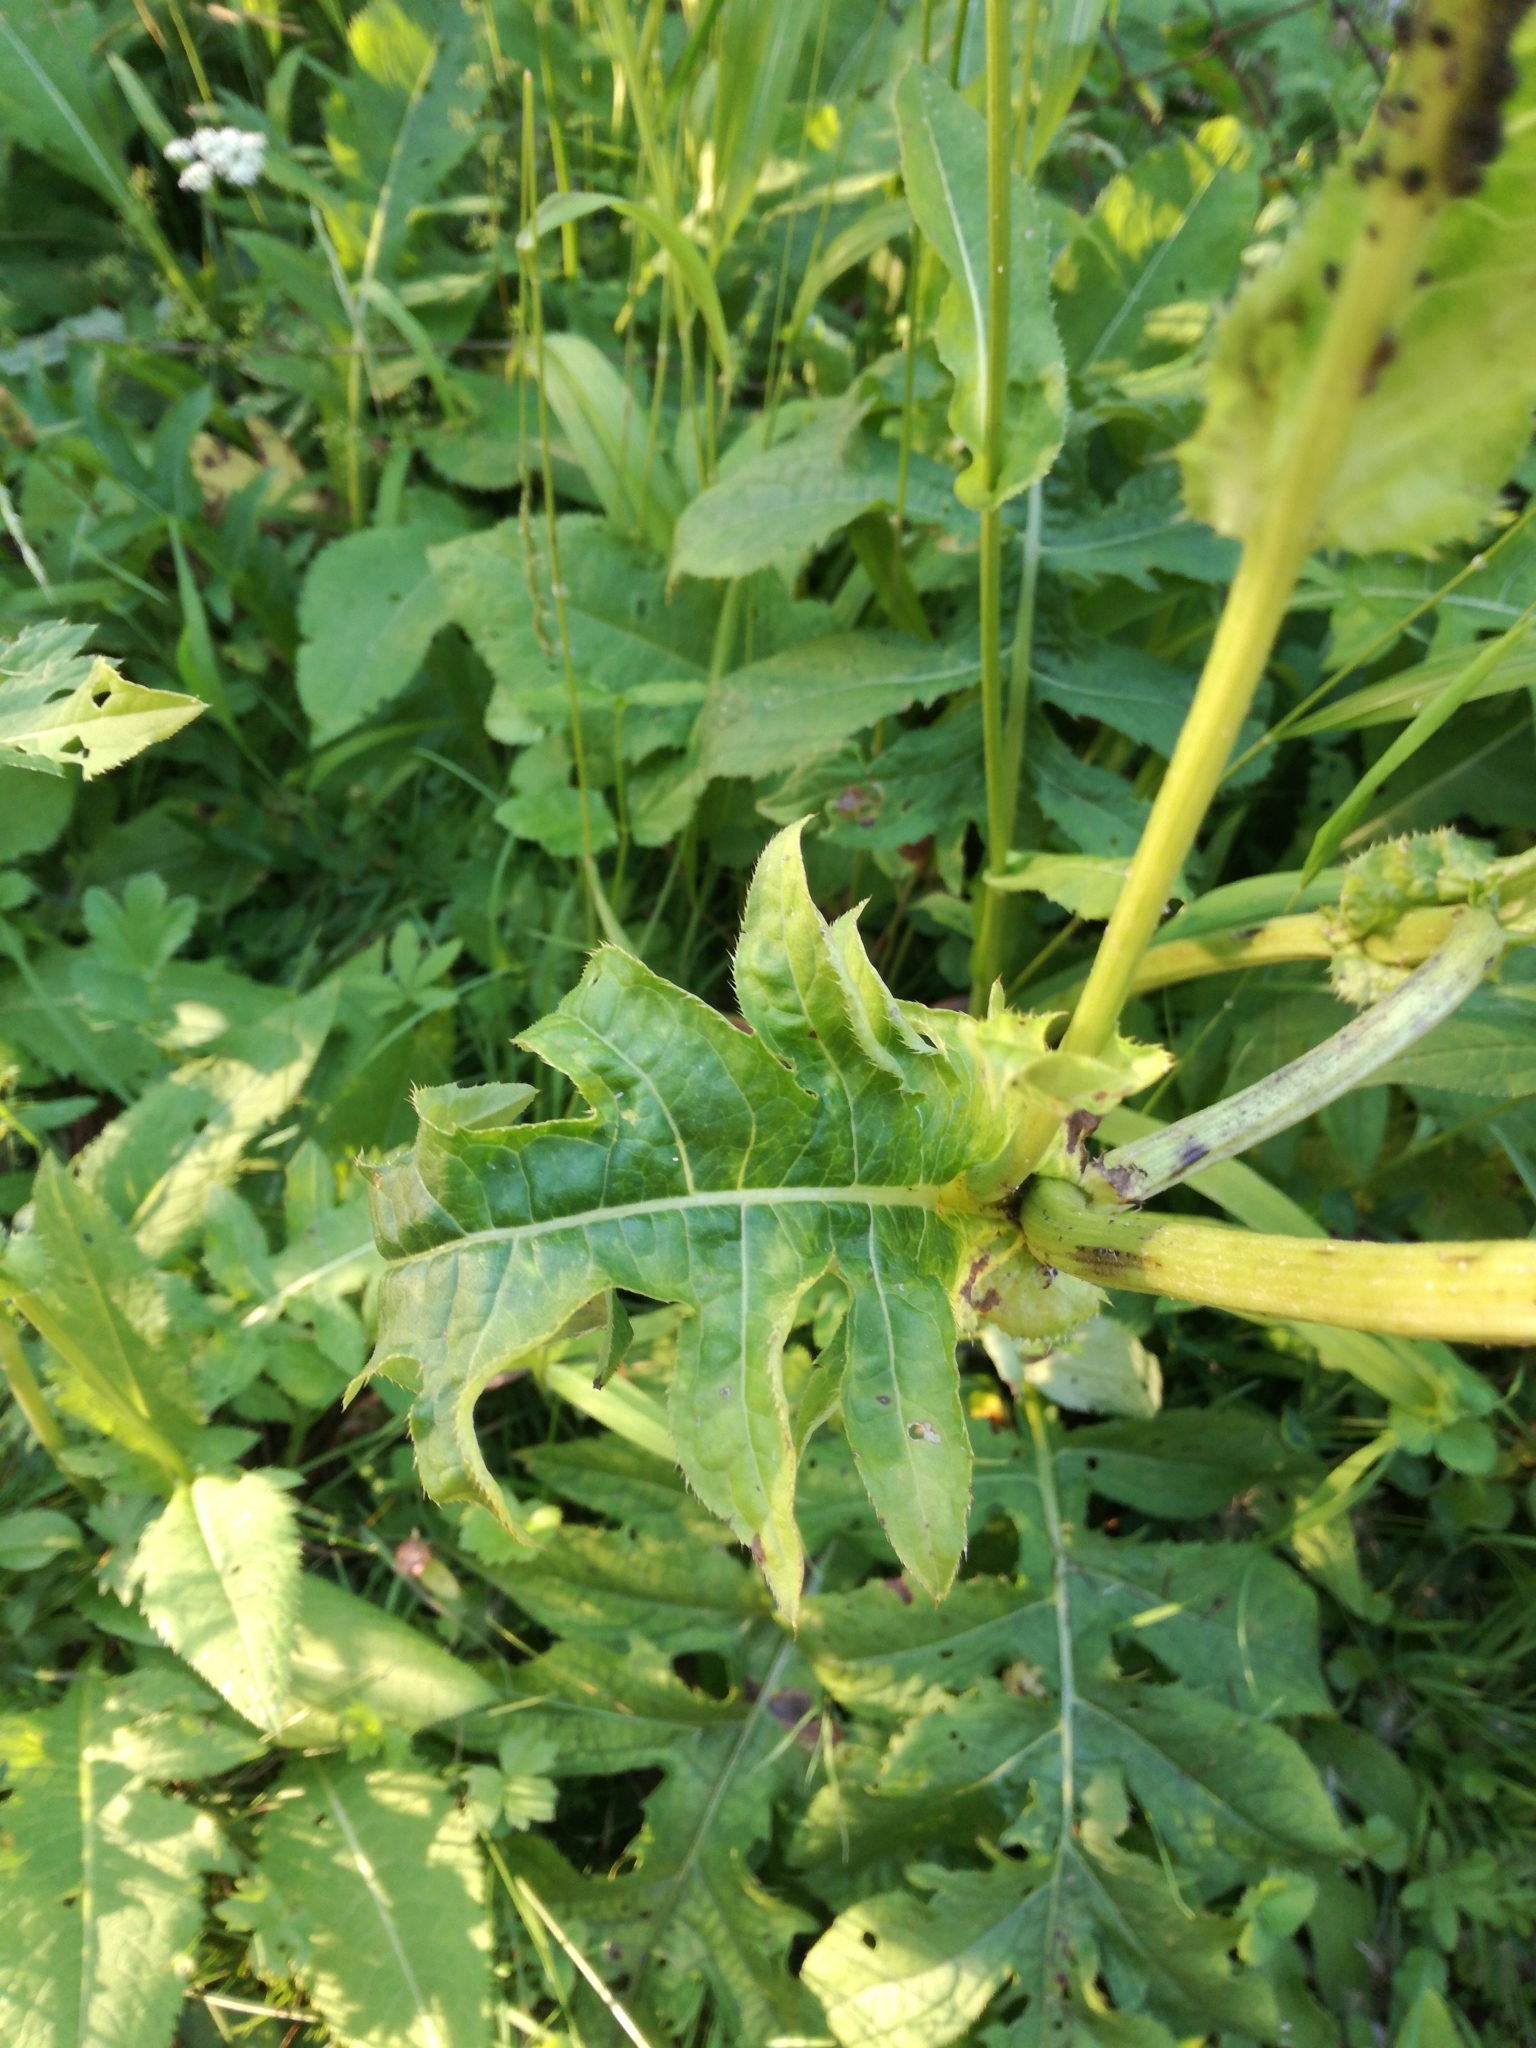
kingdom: Plantae
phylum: Tracheophyta
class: Magnoliopsida
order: Asterales
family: Asteraceae
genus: Cirsium
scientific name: Cirsium oleraceum
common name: Cabbage thistle
